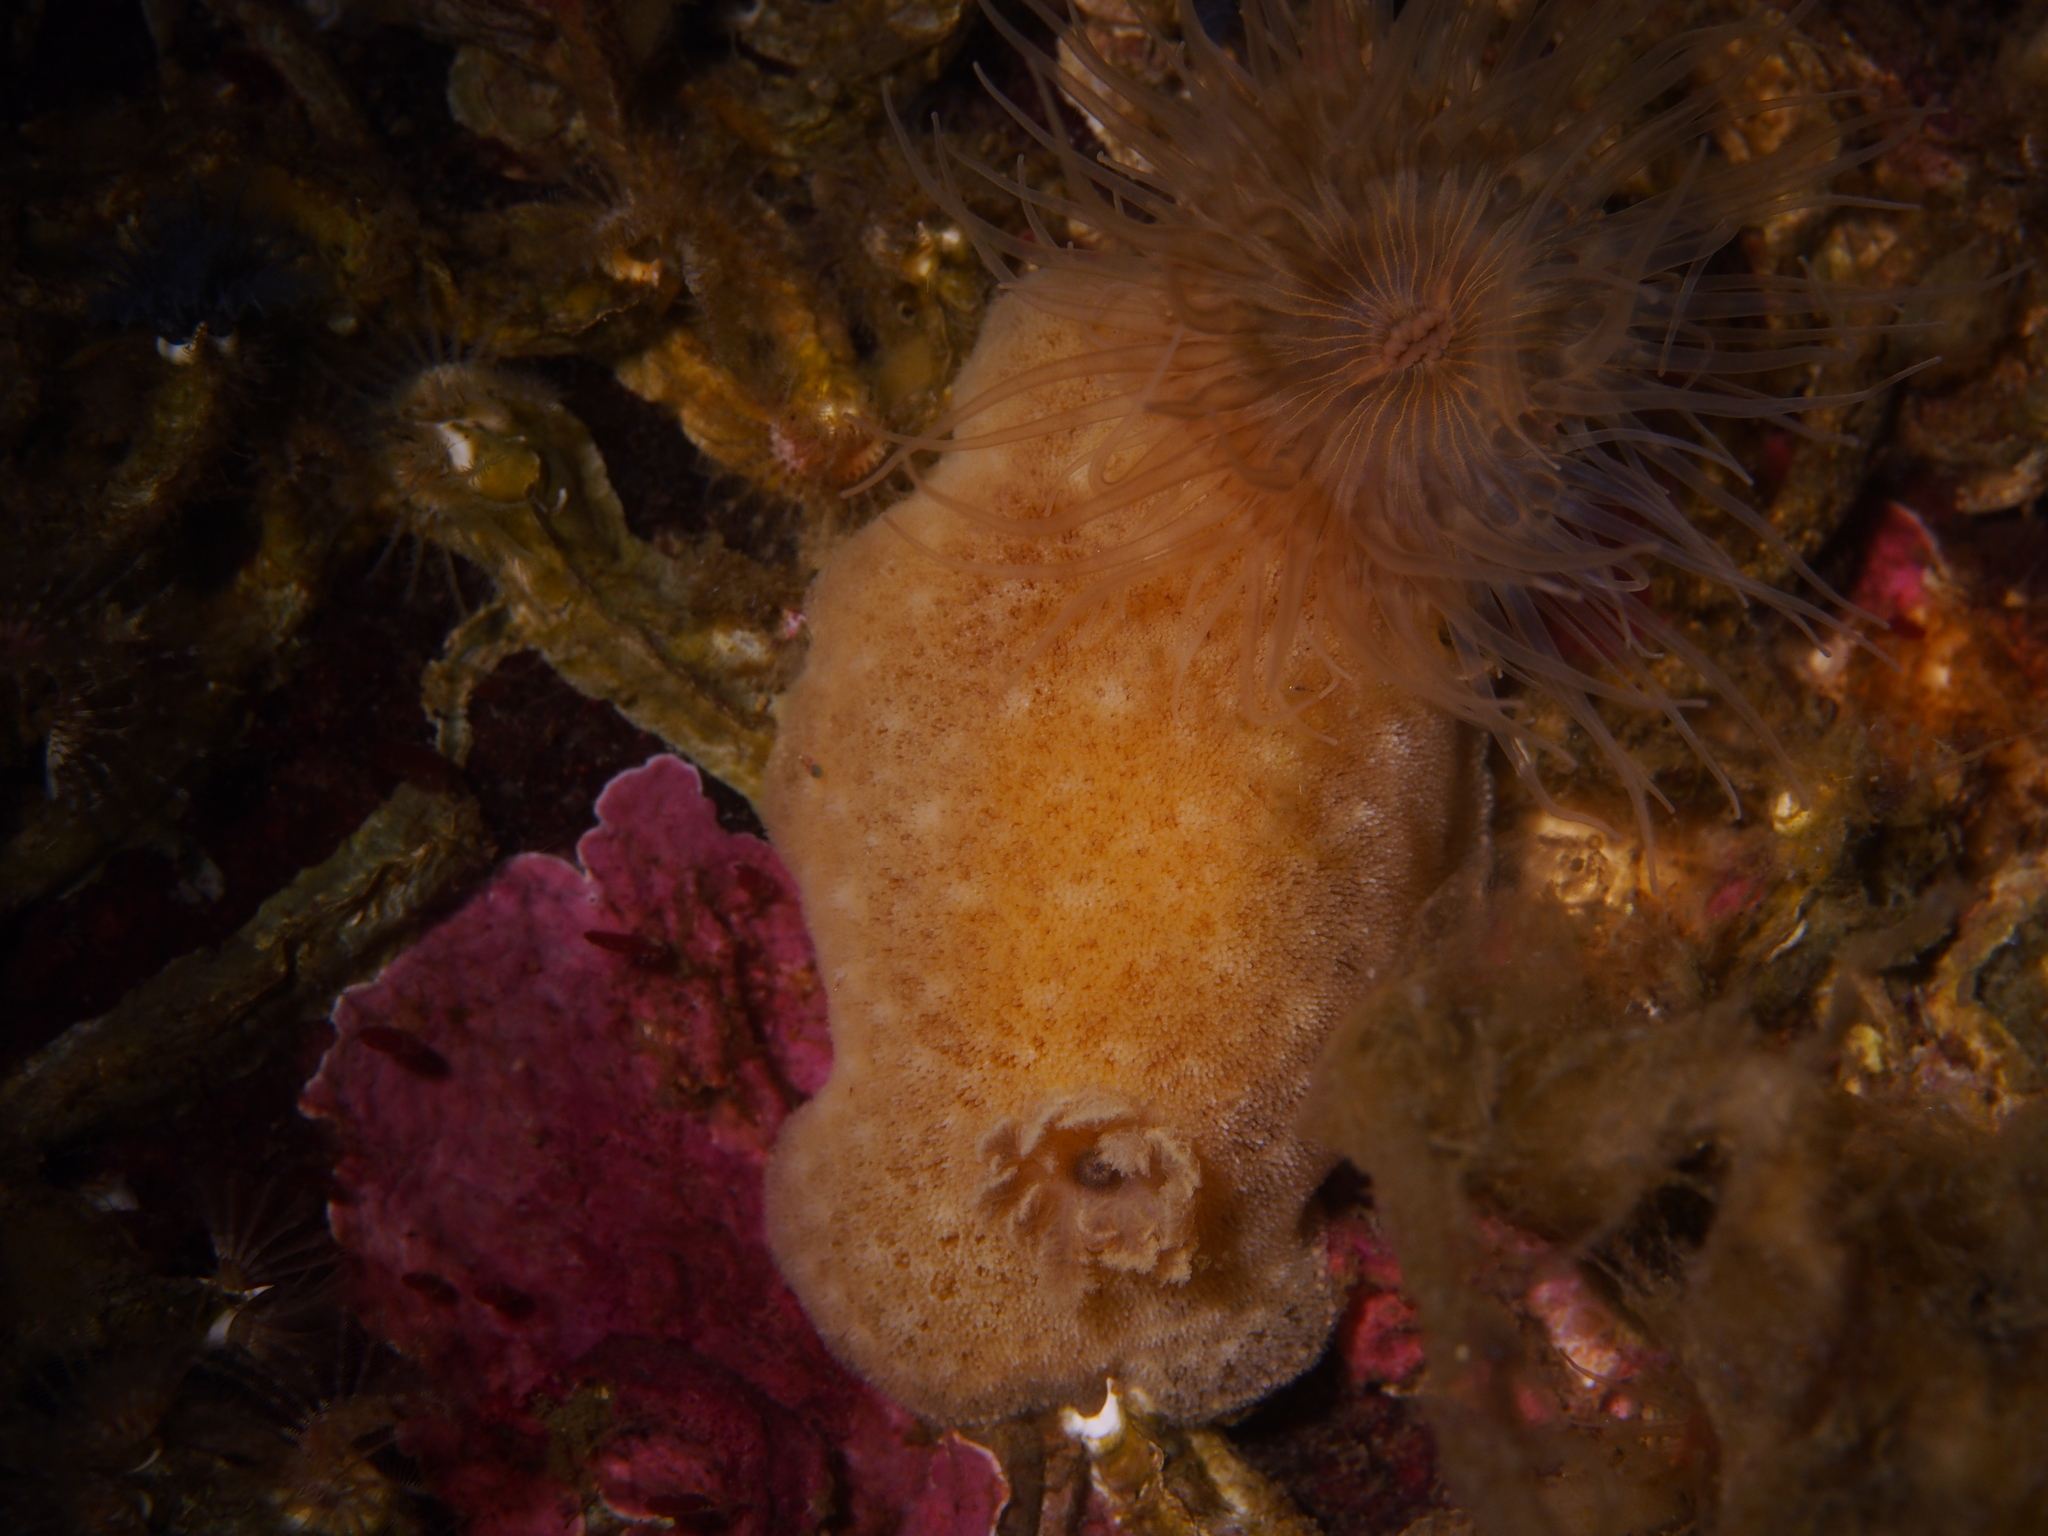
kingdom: Animalia
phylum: Mollusca
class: Gastropoda
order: Nudibranchia
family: Discodorididae
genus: Jorunna
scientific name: Jorunna tomentosa
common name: Grey sea slug
